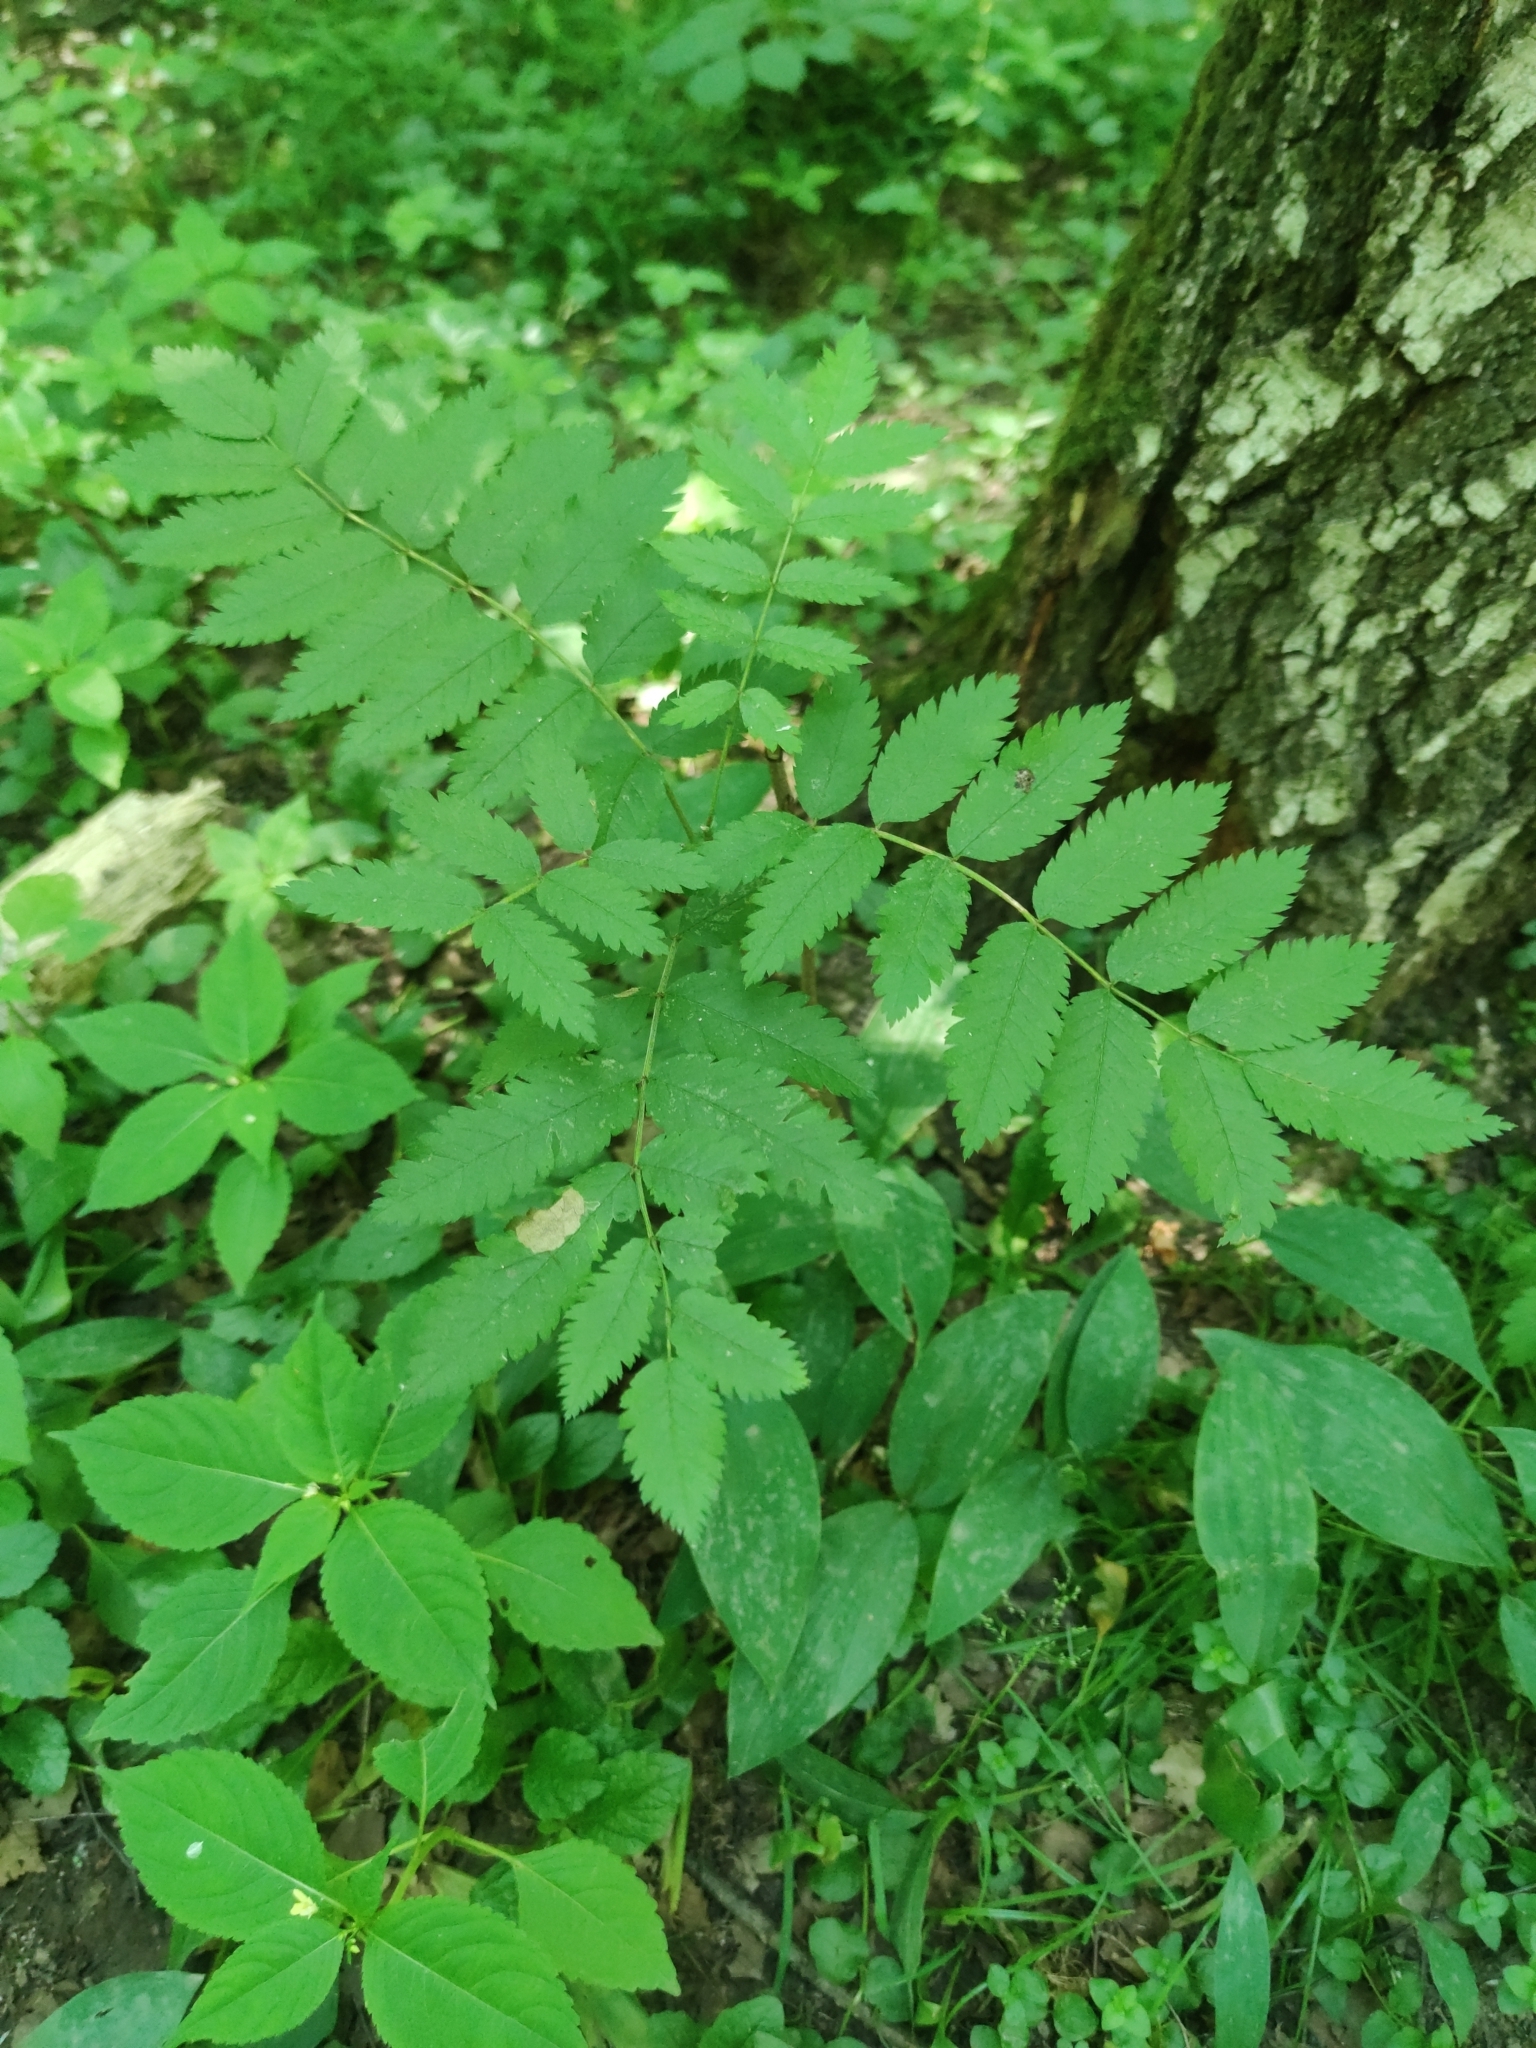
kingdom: Plantae
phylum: Tracheophyta
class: Magnoliopsida
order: Rosales
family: Rosaceae
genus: Sorbus
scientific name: Sorbus aucuparia
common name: Rowan
